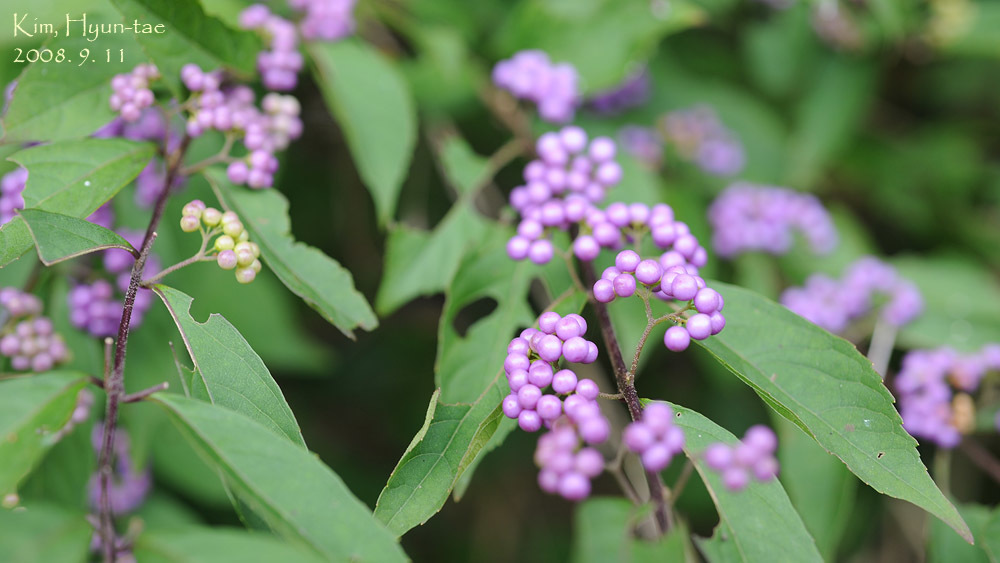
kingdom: Plantae
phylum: Tracheophyta
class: Magnoliopsida
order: Lamiales
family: Lamiaceae
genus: Callicarpa
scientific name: Callicarpa dichotoma
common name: Purple beauty-berry
